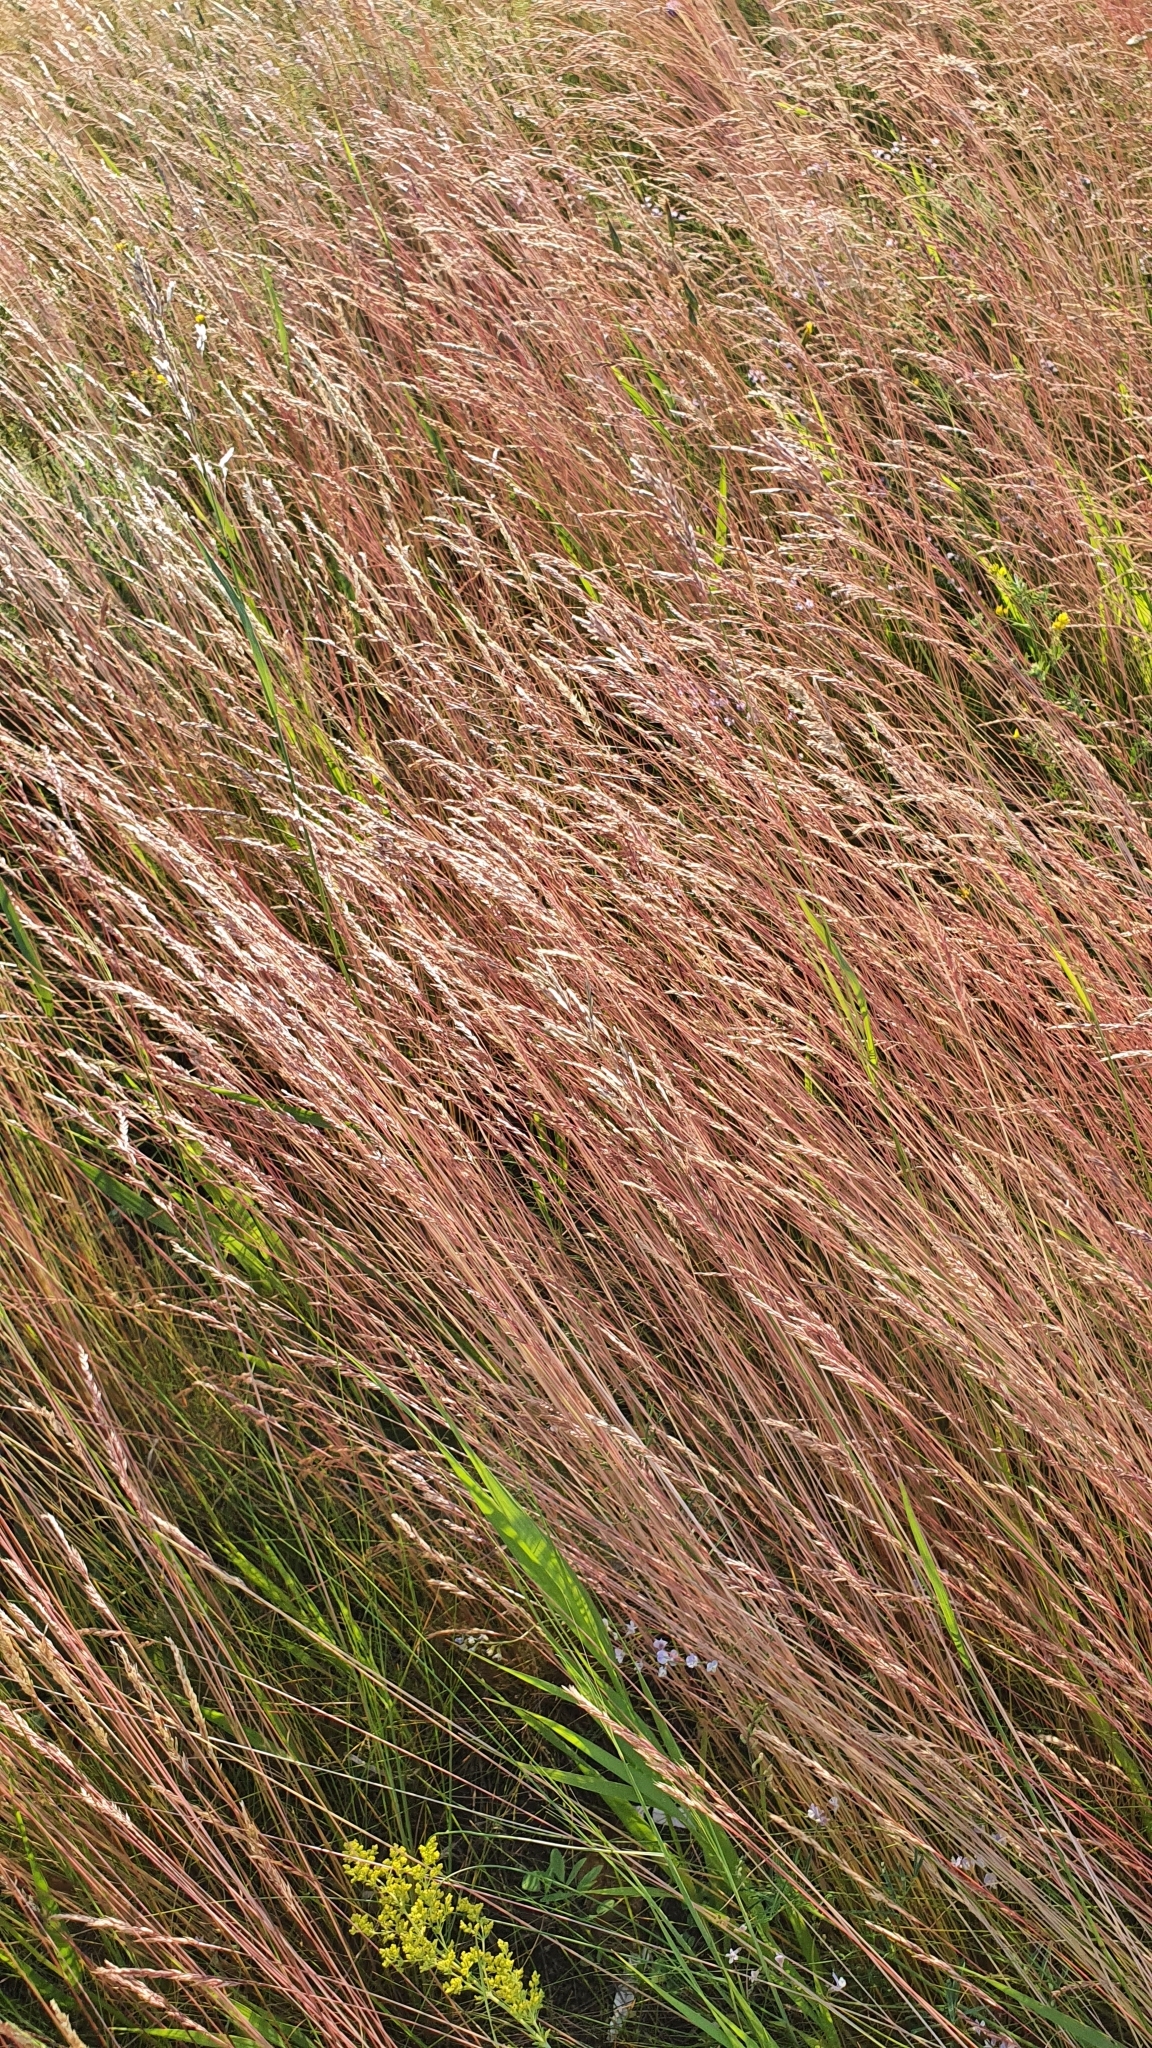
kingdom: Plantae
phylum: Tracheophyta
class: Liliopsida
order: Poales
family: Poaceae
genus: Festuca
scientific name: Festuca rubra
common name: Red fescue
